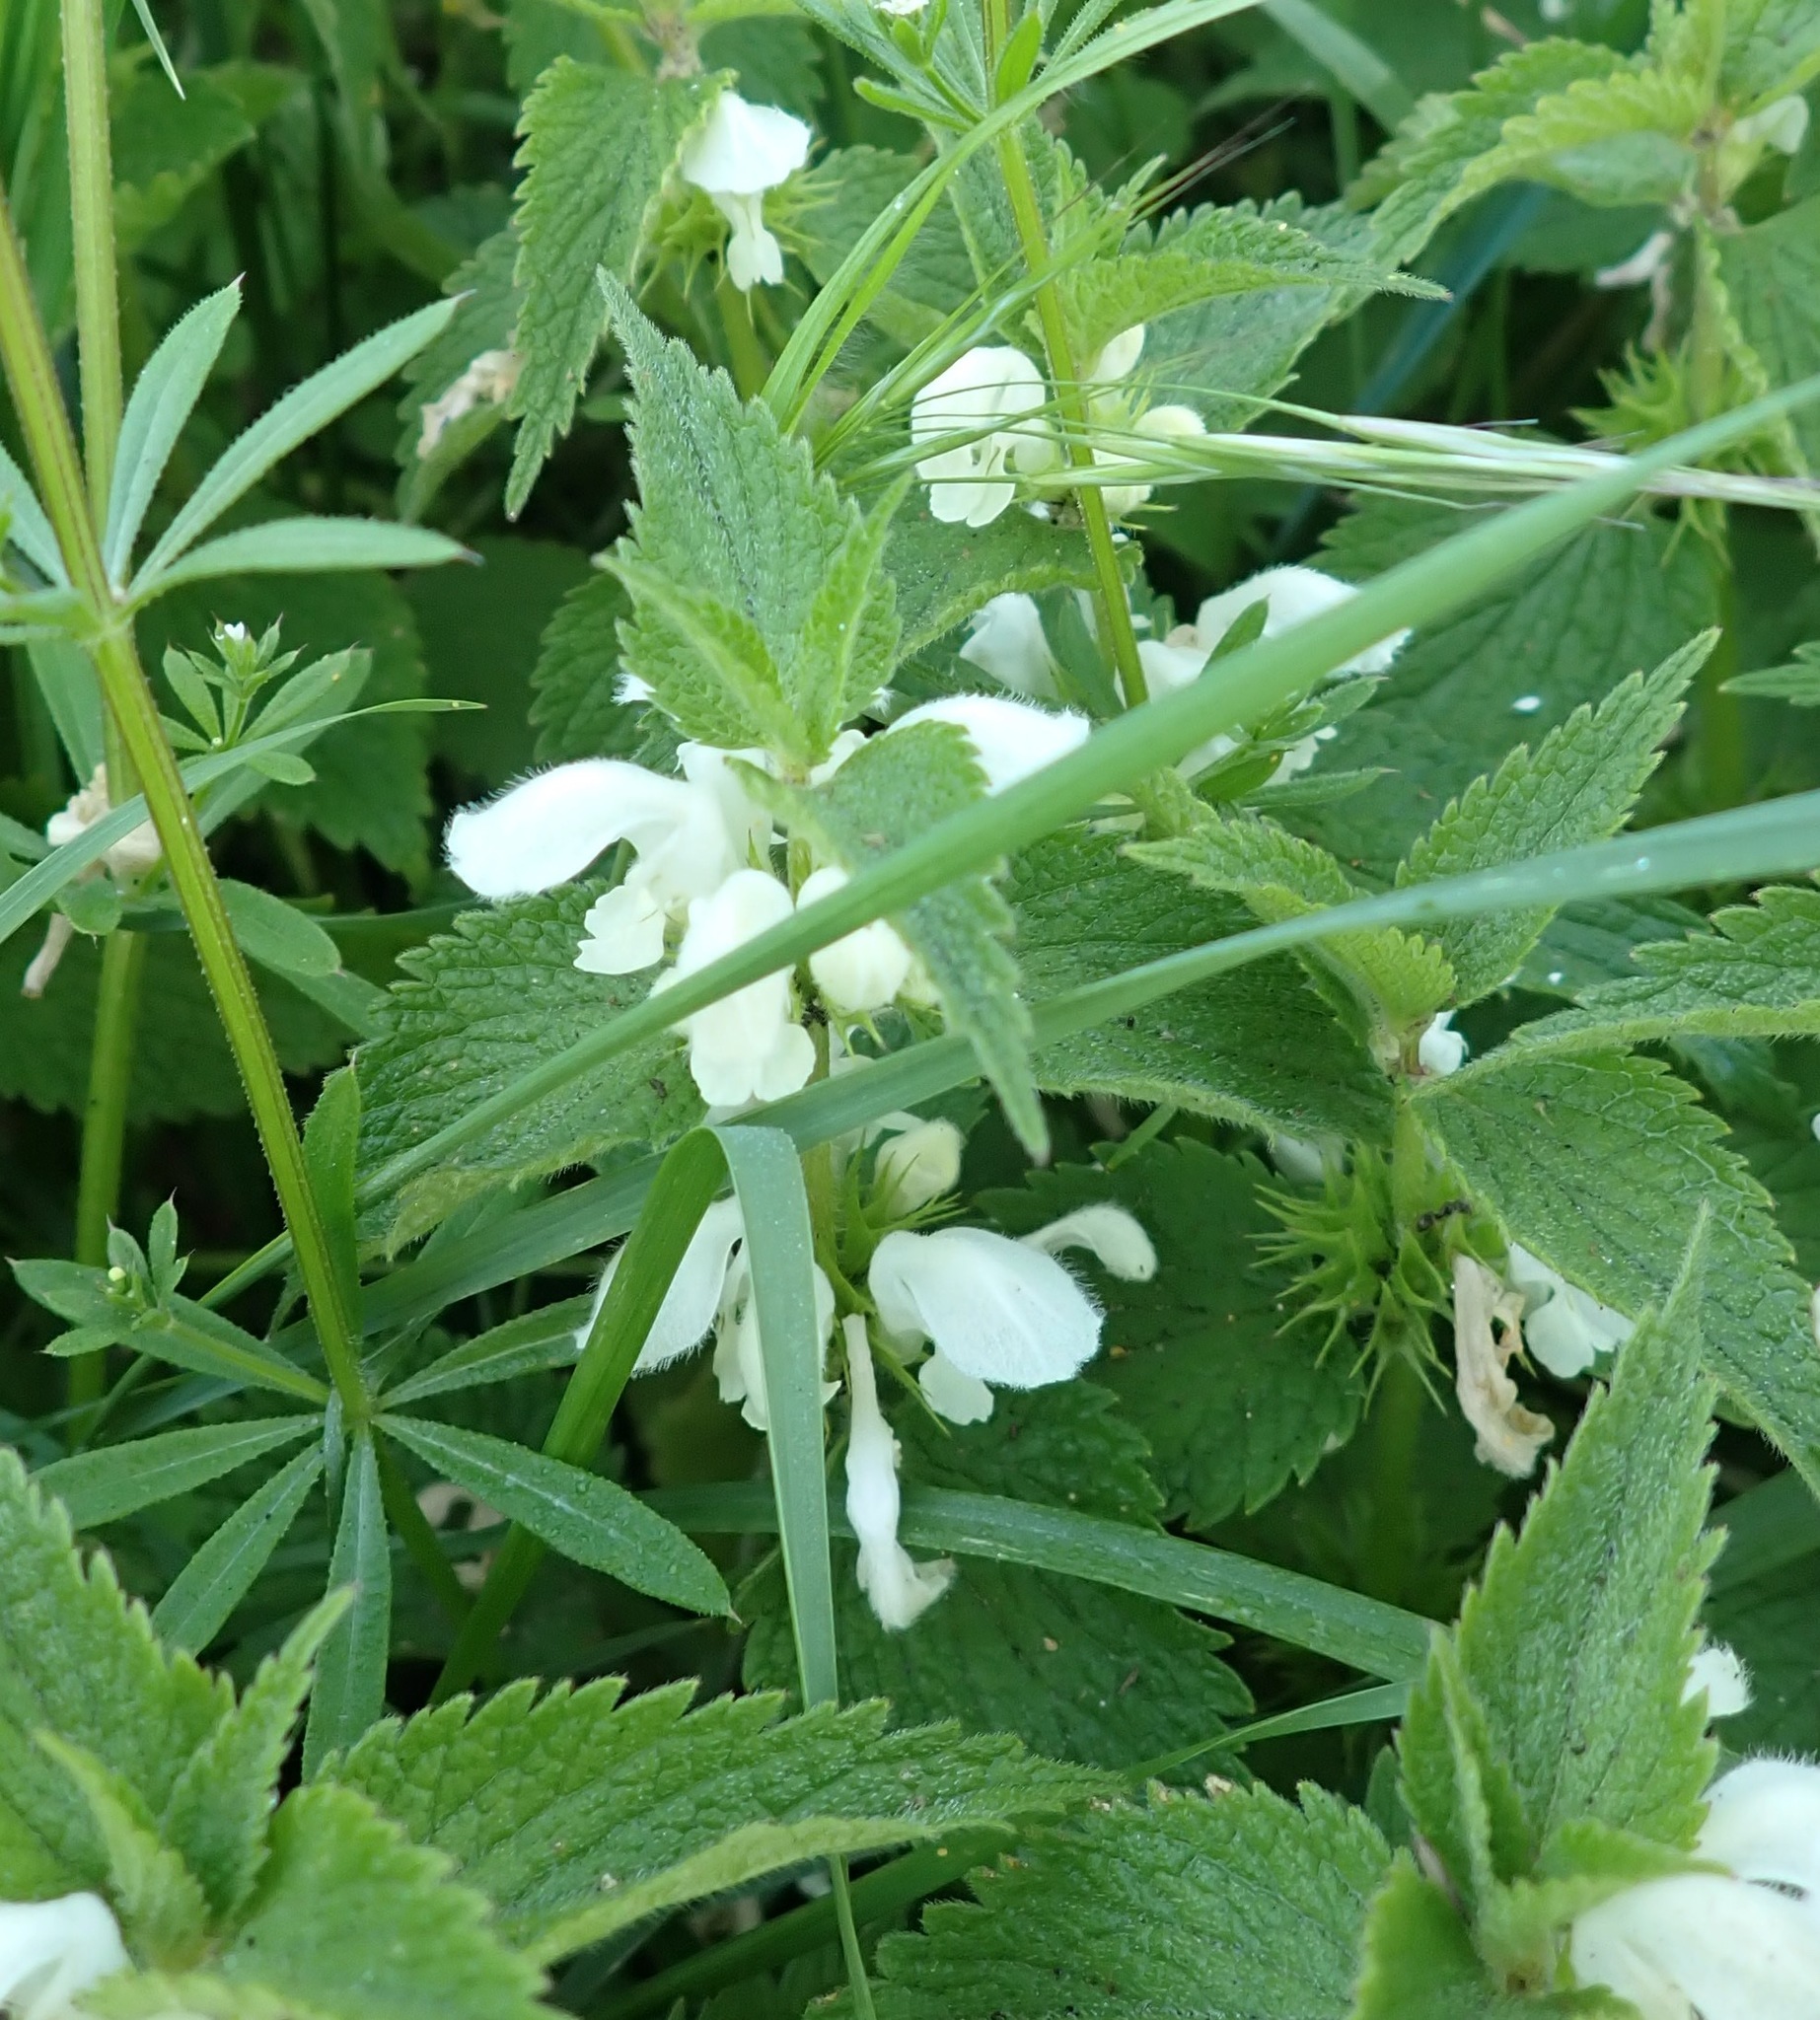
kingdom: Plantae
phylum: Tracheophyta
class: Magnoliopsida
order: Lamiales
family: Lamiaceae
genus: Lamium
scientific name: Lamium album
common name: White dead-nettle
